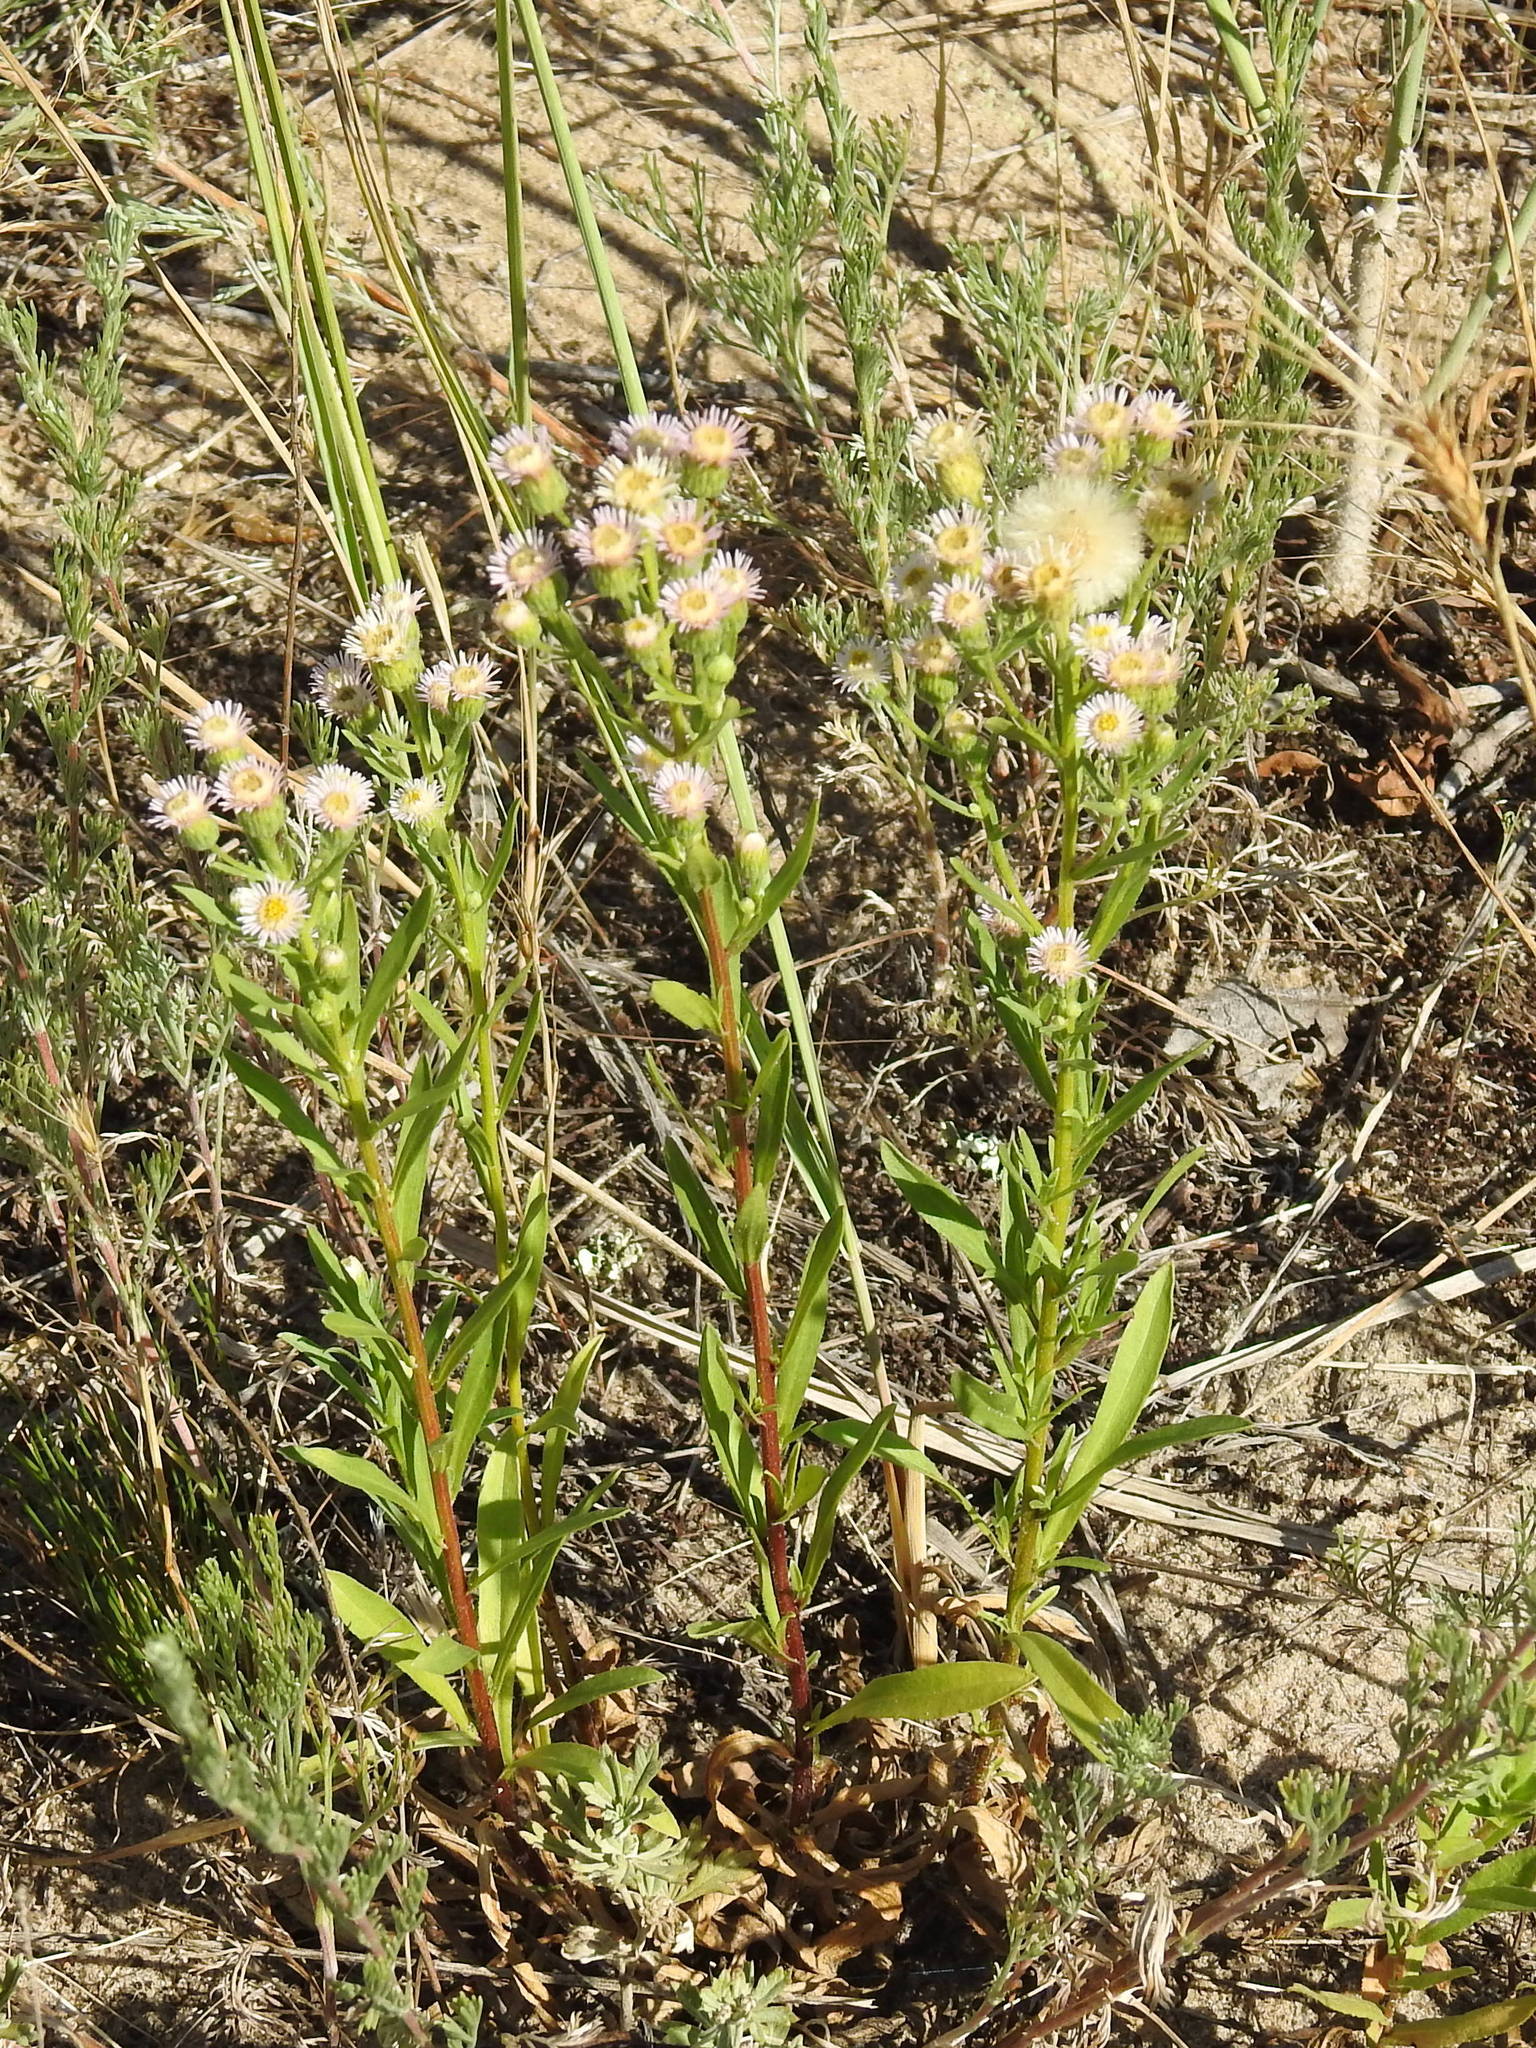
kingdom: Plantae
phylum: Tracheophyta
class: Magnoliopsida
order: Asterales
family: Asteraceae
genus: Erigeron
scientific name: Erigeron acris
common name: Blue fleabane
